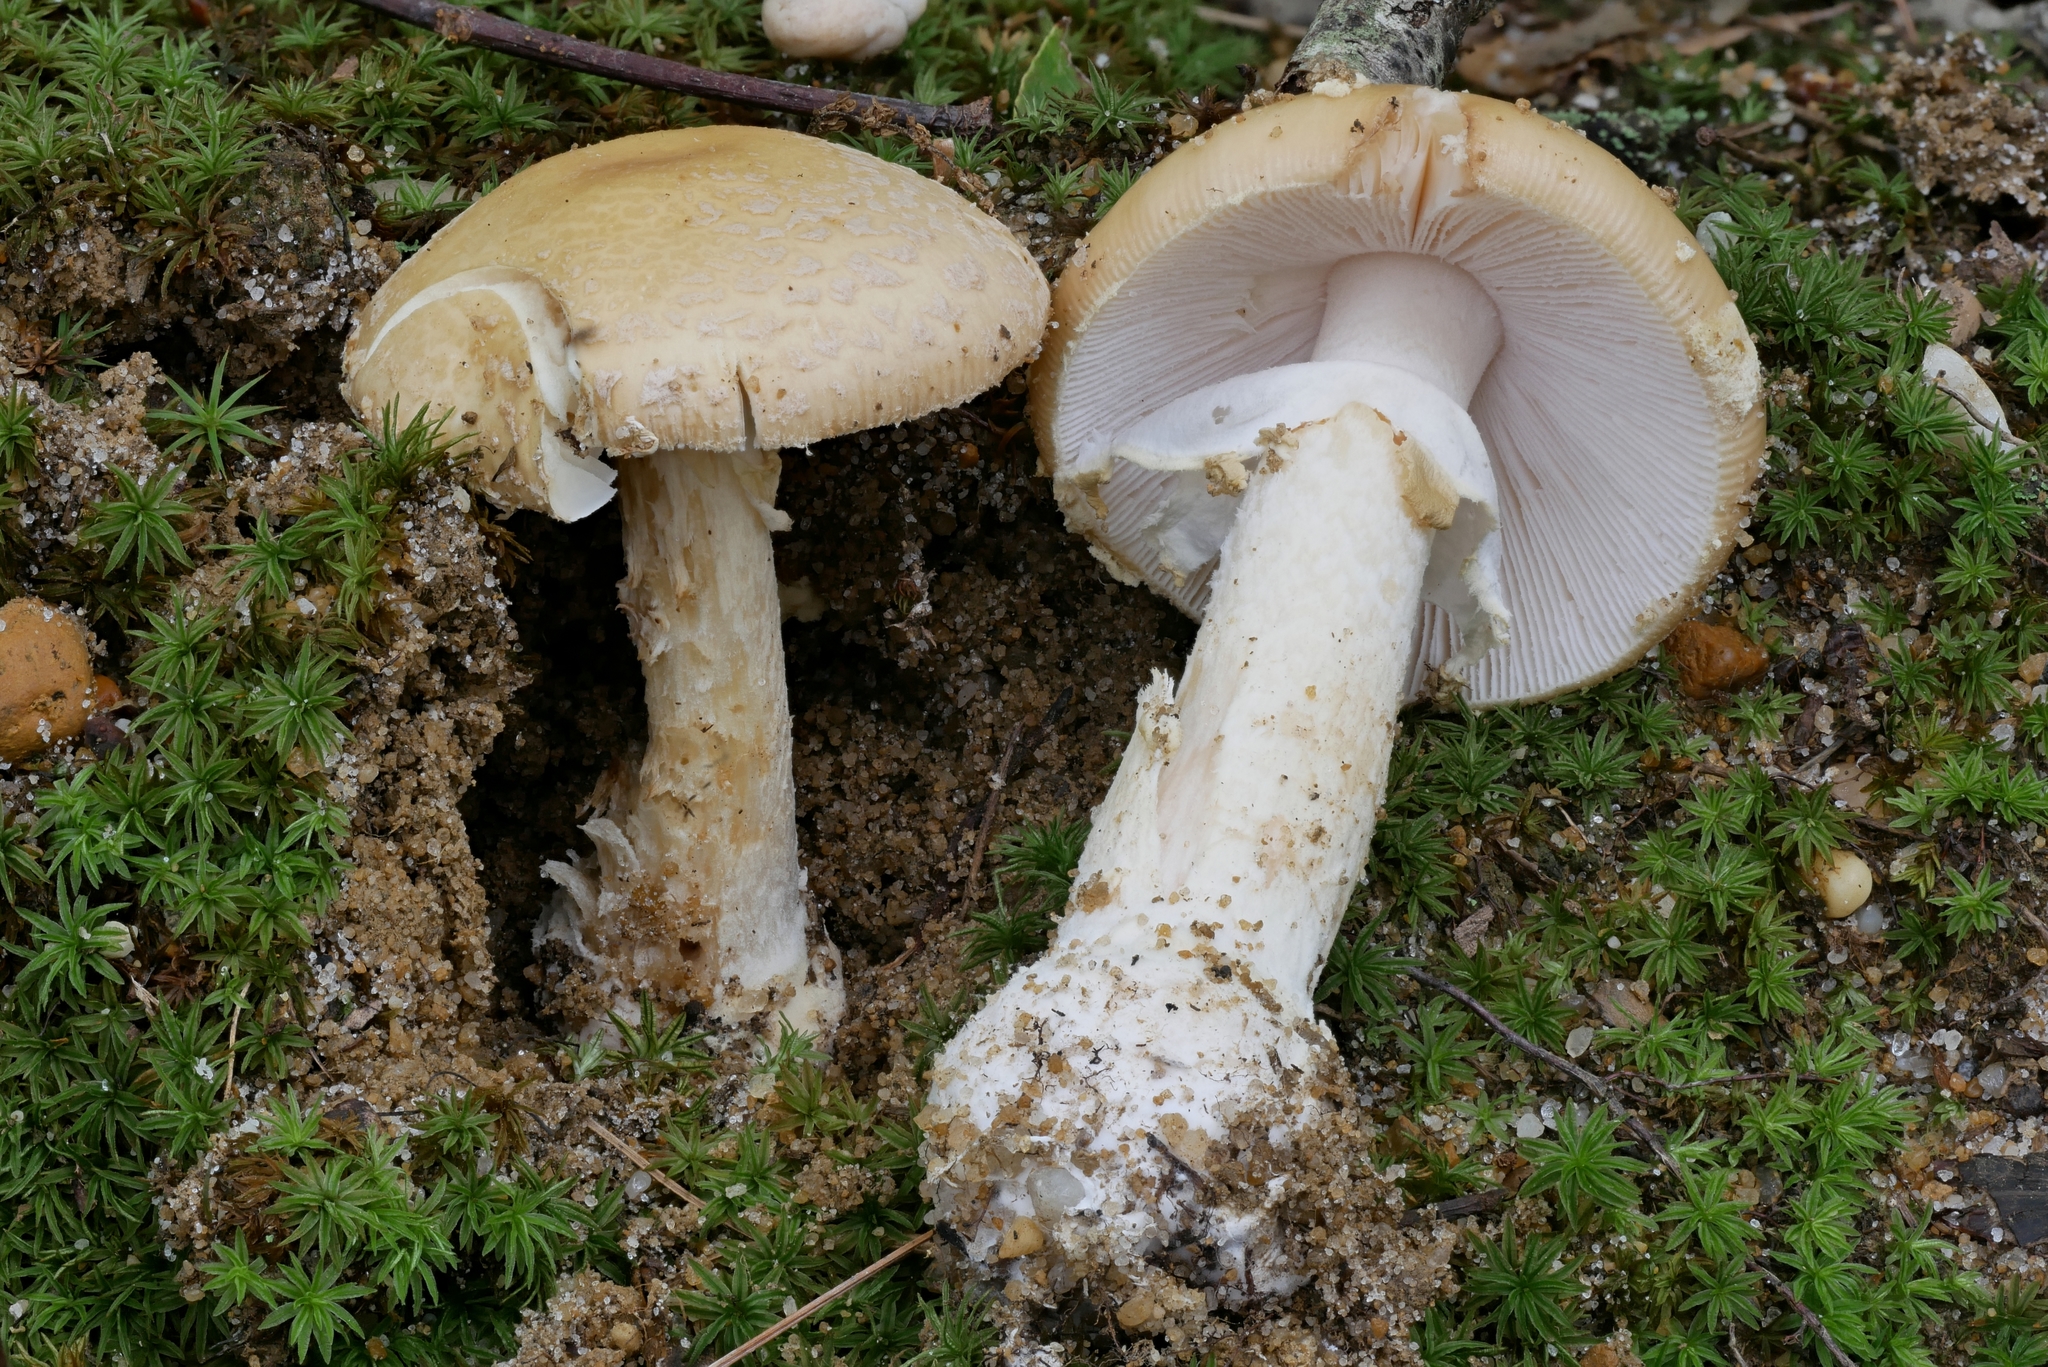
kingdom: Fungi
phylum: Basidiomycota
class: Agaricomycetes
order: Agaricales
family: Amanitaceae
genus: Amanita
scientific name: Amanita crenulata
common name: Poison champagne amanita
